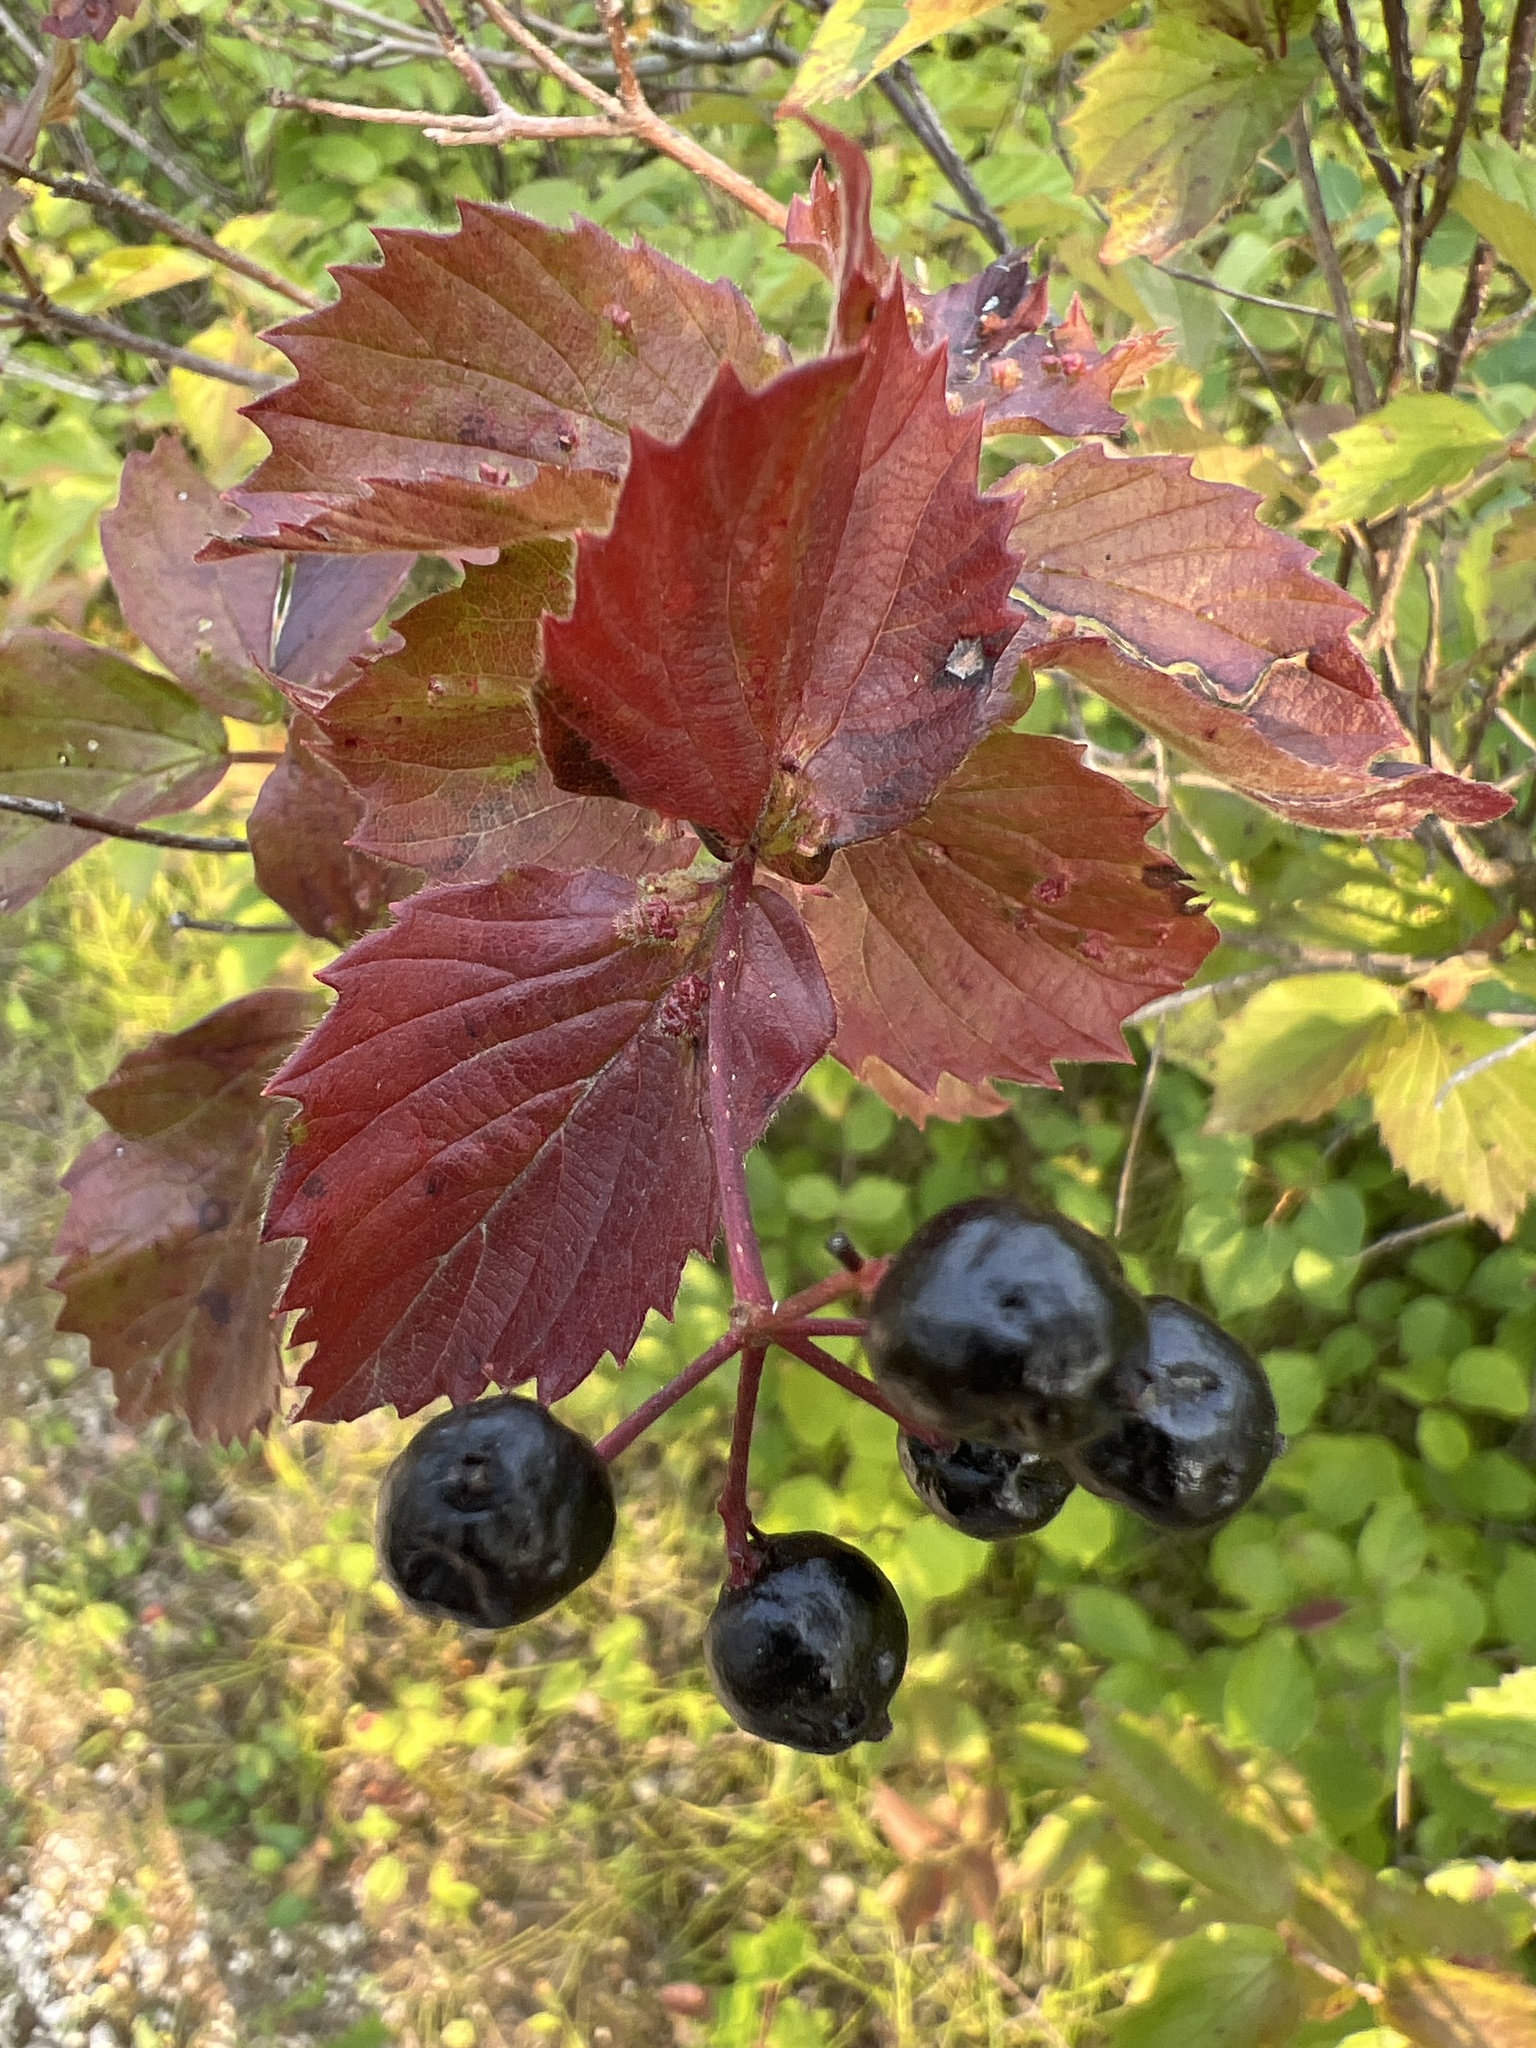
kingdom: Plantae
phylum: Tracheophyta
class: Magnoliopsida
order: Dipsacales
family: Viburnaceae
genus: Viburnum
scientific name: Viburnum rafinesqueanum
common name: Downy arrow-wood
